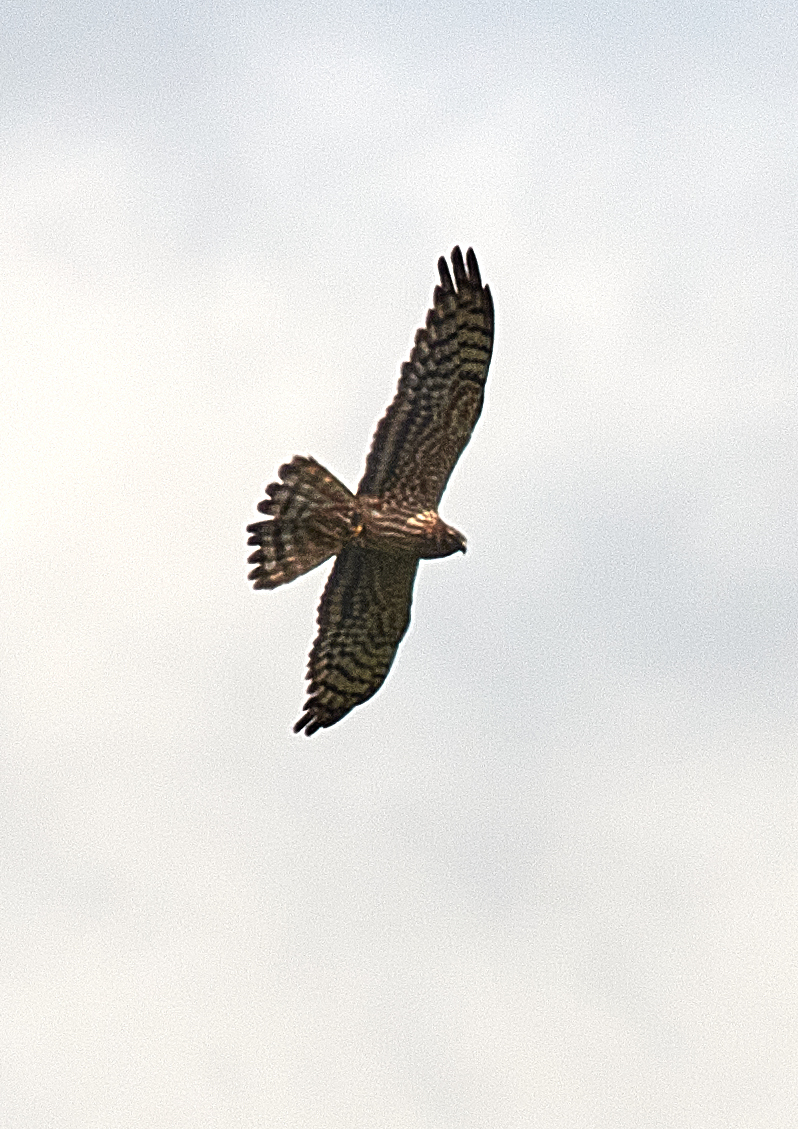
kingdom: Animalia
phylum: Chordata
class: Aves
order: Accipitriformes
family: Accipitridae
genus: Circus
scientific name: Circus pygargus
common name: Montagu's harrier
